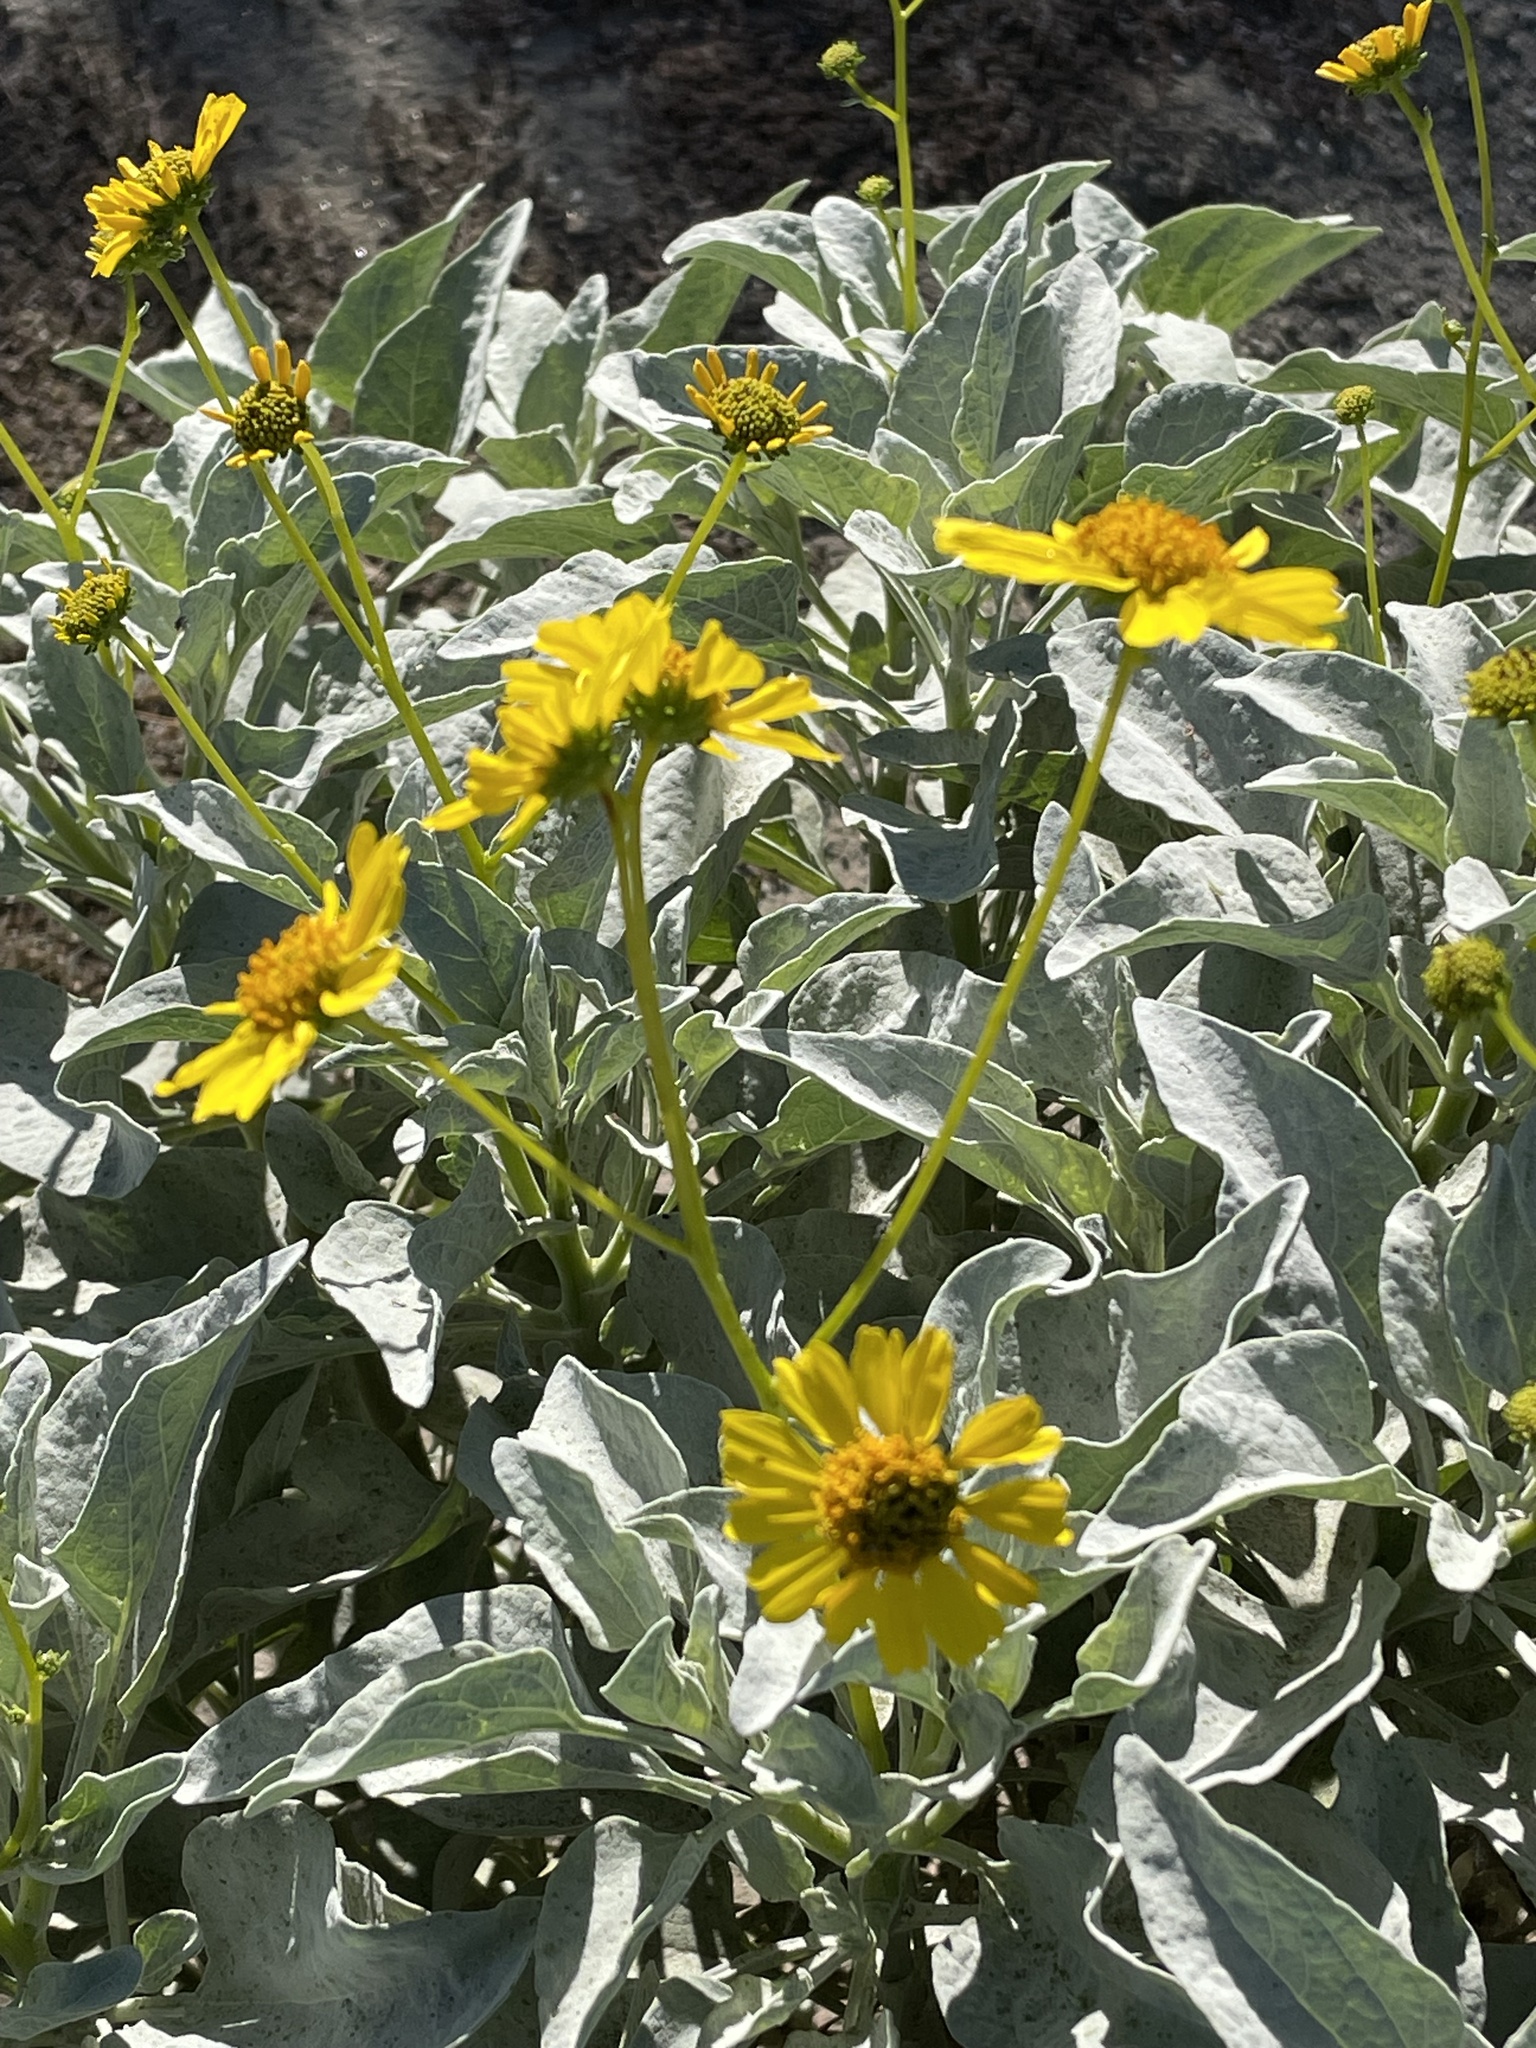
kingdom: Plantae
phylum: Tracheophyta
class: Magnoliopsida
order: Asterales
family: Asteraceae
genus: Encelia
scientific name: Encelia farinosa
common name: Brittlebush
